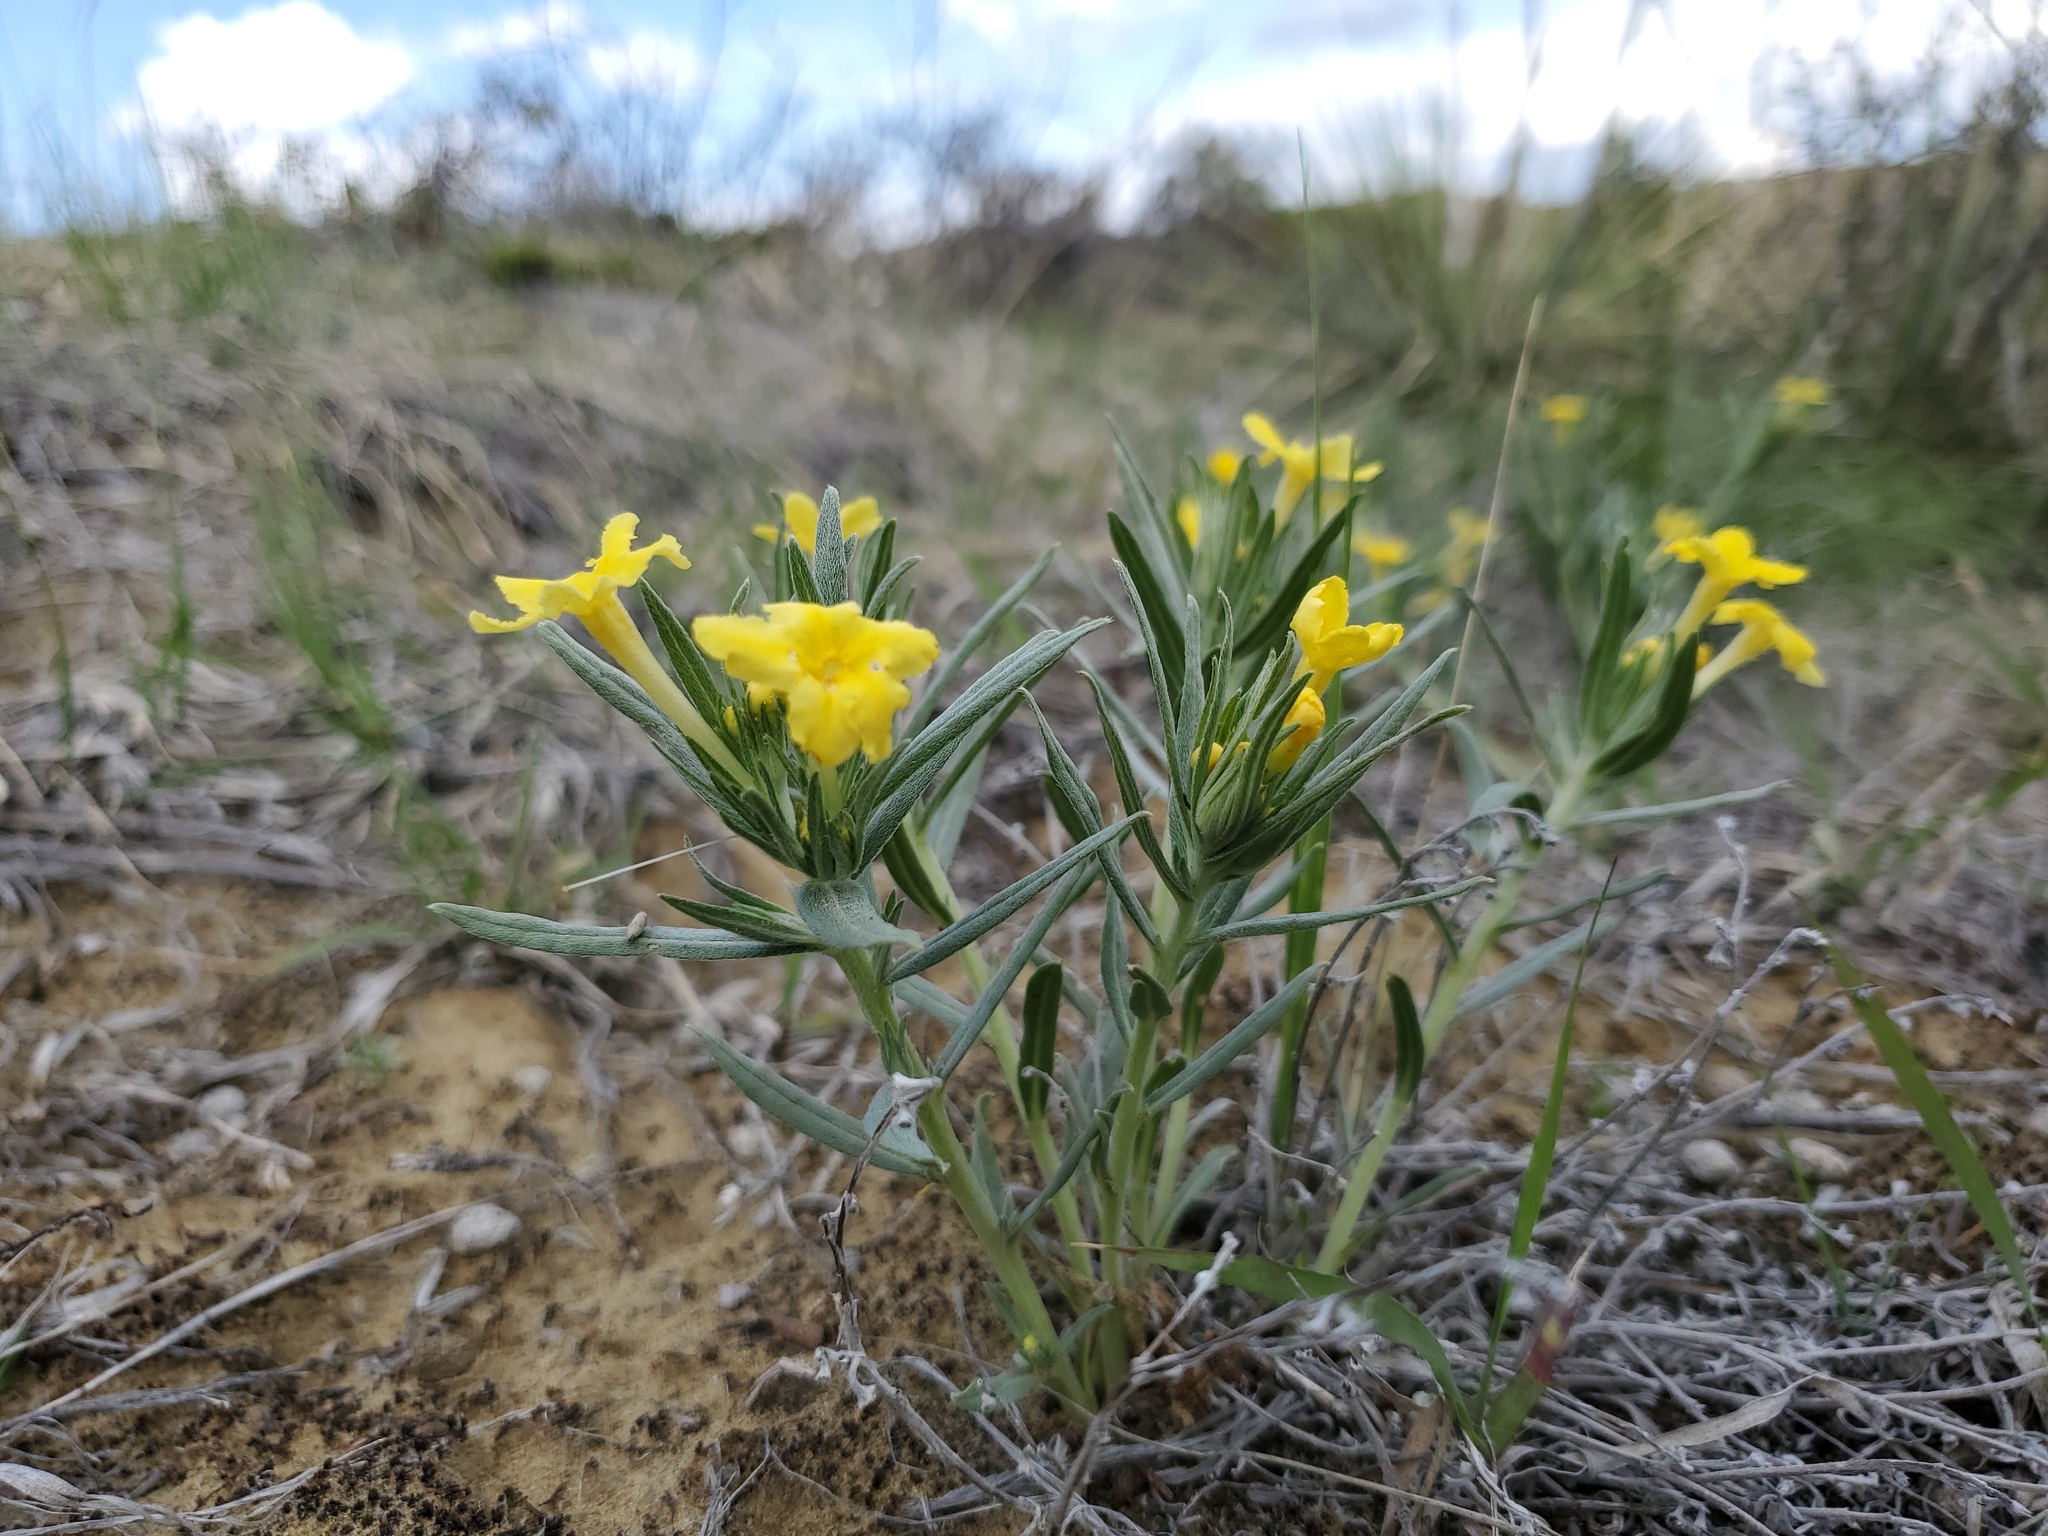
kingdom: Plantae
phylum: Tracheophyta
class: Magnoliopsida
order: Boraginales
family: Boraginaceae
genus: Lithospermum
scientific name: Lithospermum incisum
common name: Fringed gromwell
